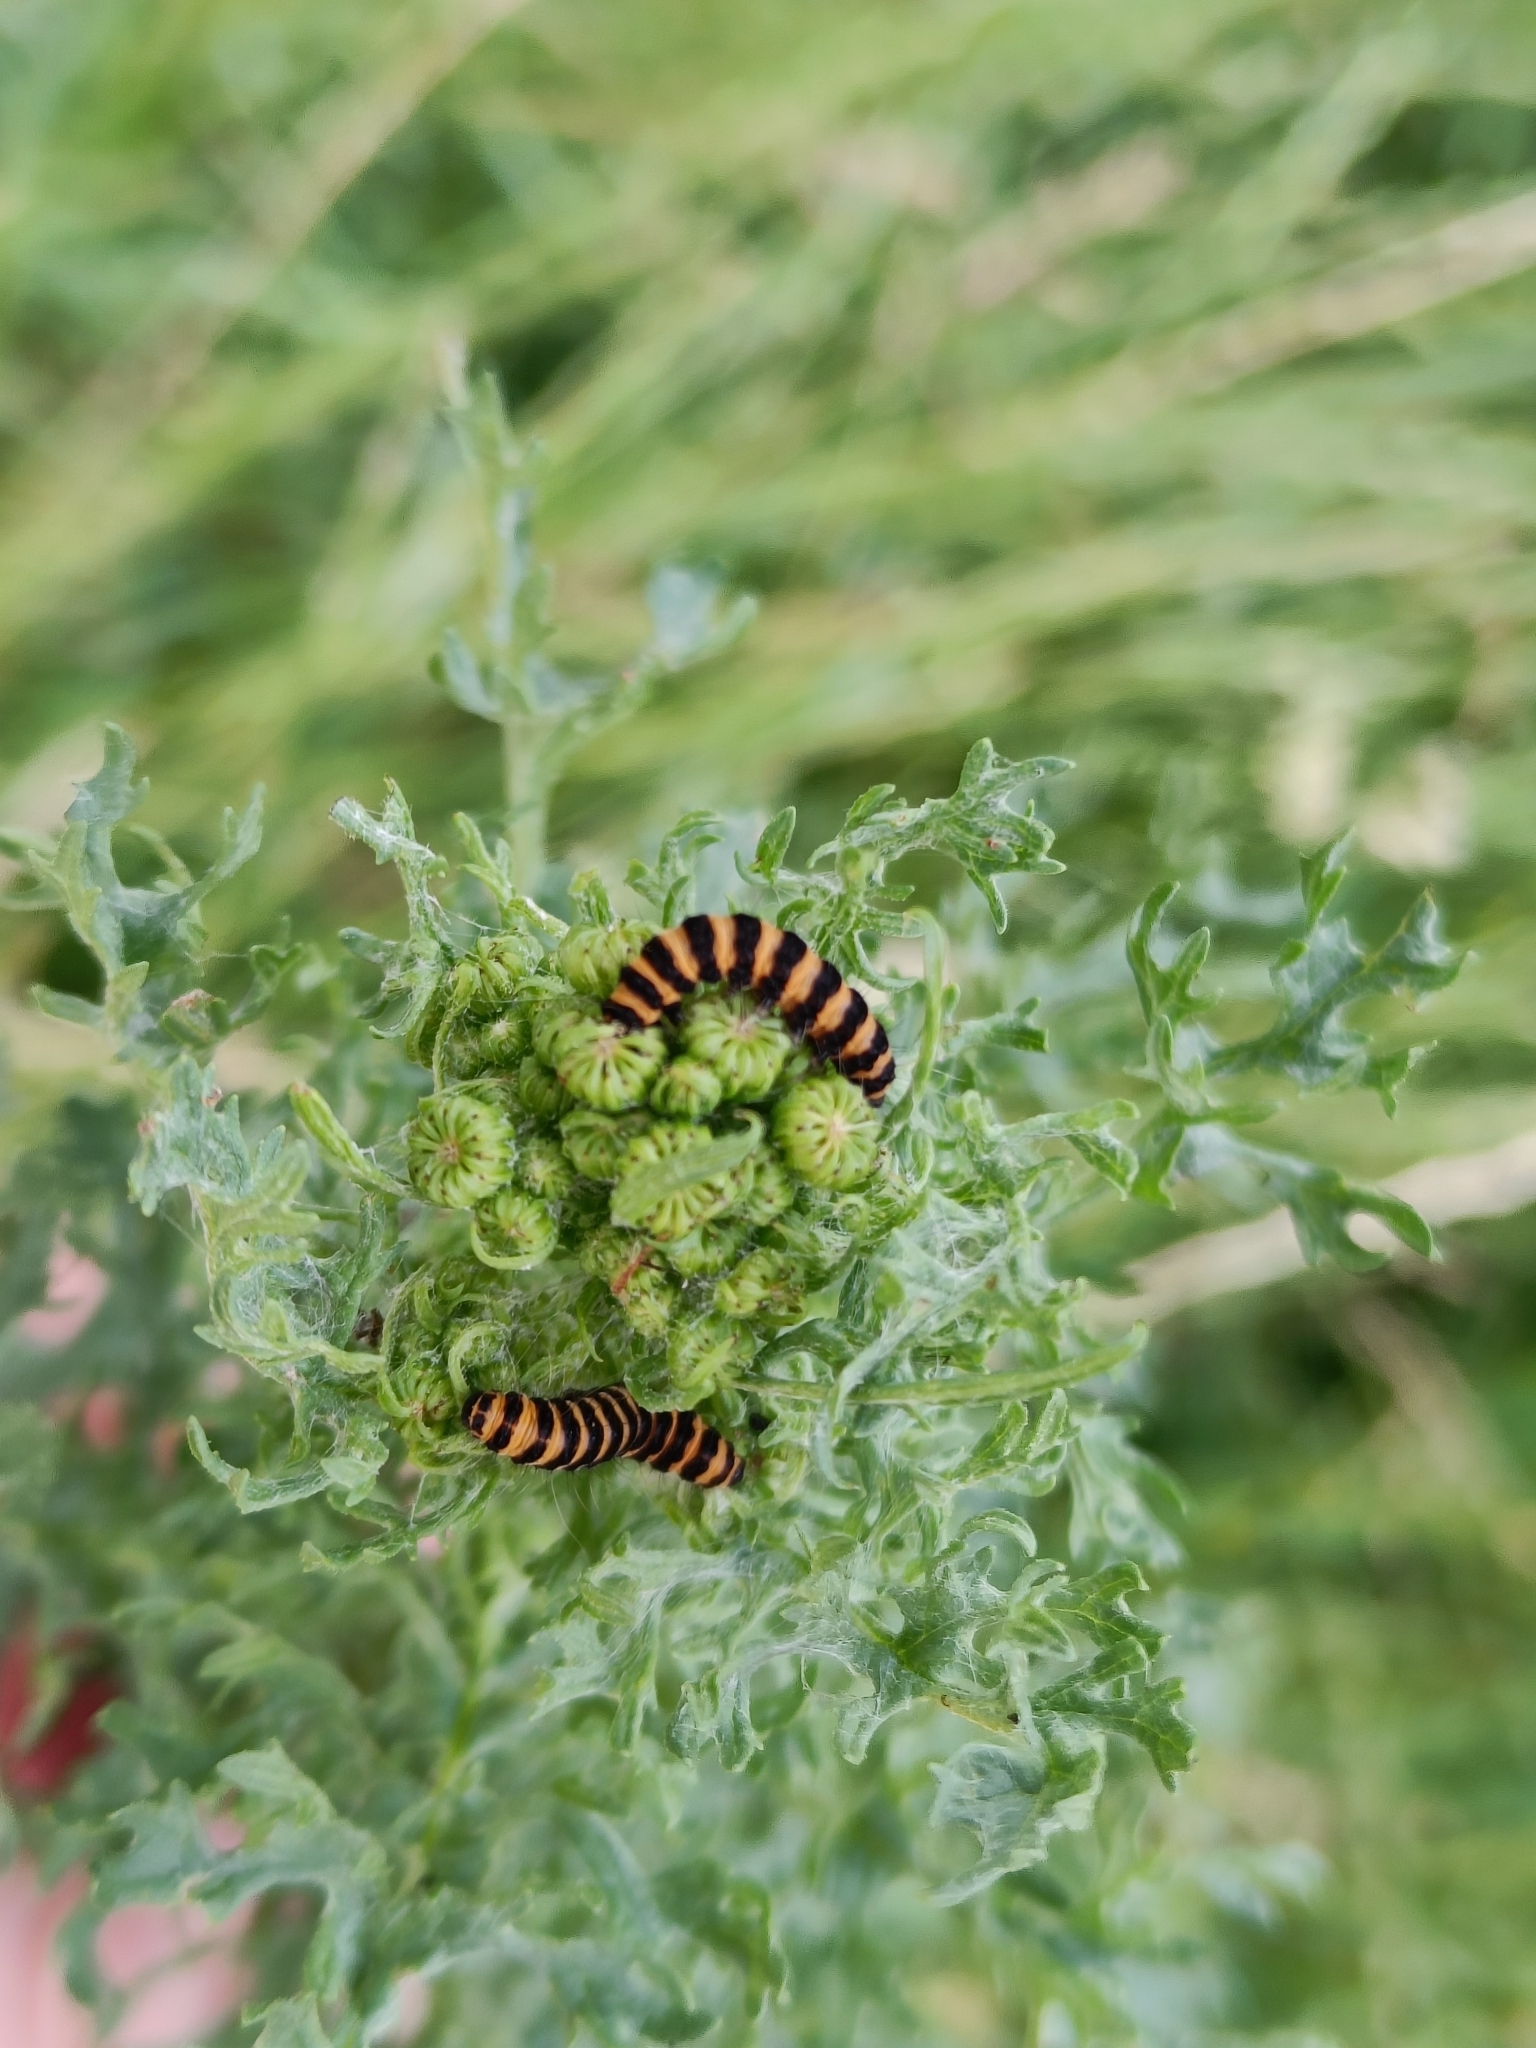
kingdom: Animalia
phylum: Arthropoda
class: Insecta
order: Lepidoptera
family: Erebidae
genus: Tyria
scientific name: Tyria jacobaeae
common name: Cinnabar
